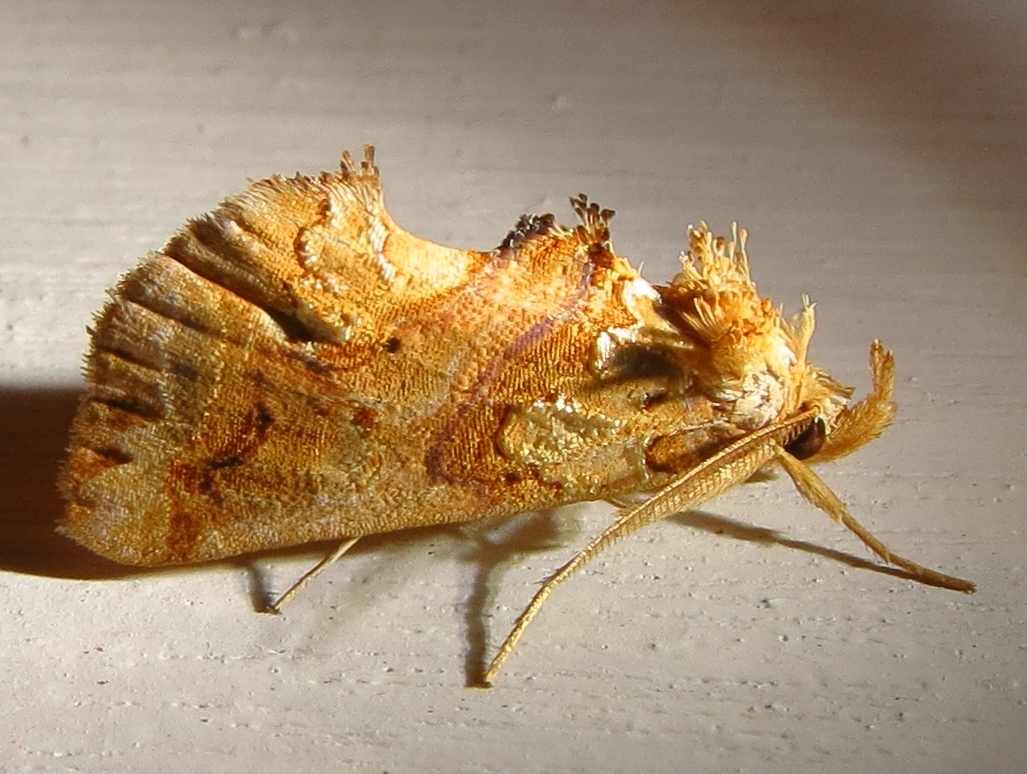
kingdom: Animalia
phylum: Arthropoda
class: Insecta
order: Lepidoptera
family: Erebidae
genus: Plusiodonta
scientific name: Plusiodonta compressipalpis
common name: Moonseed moth
